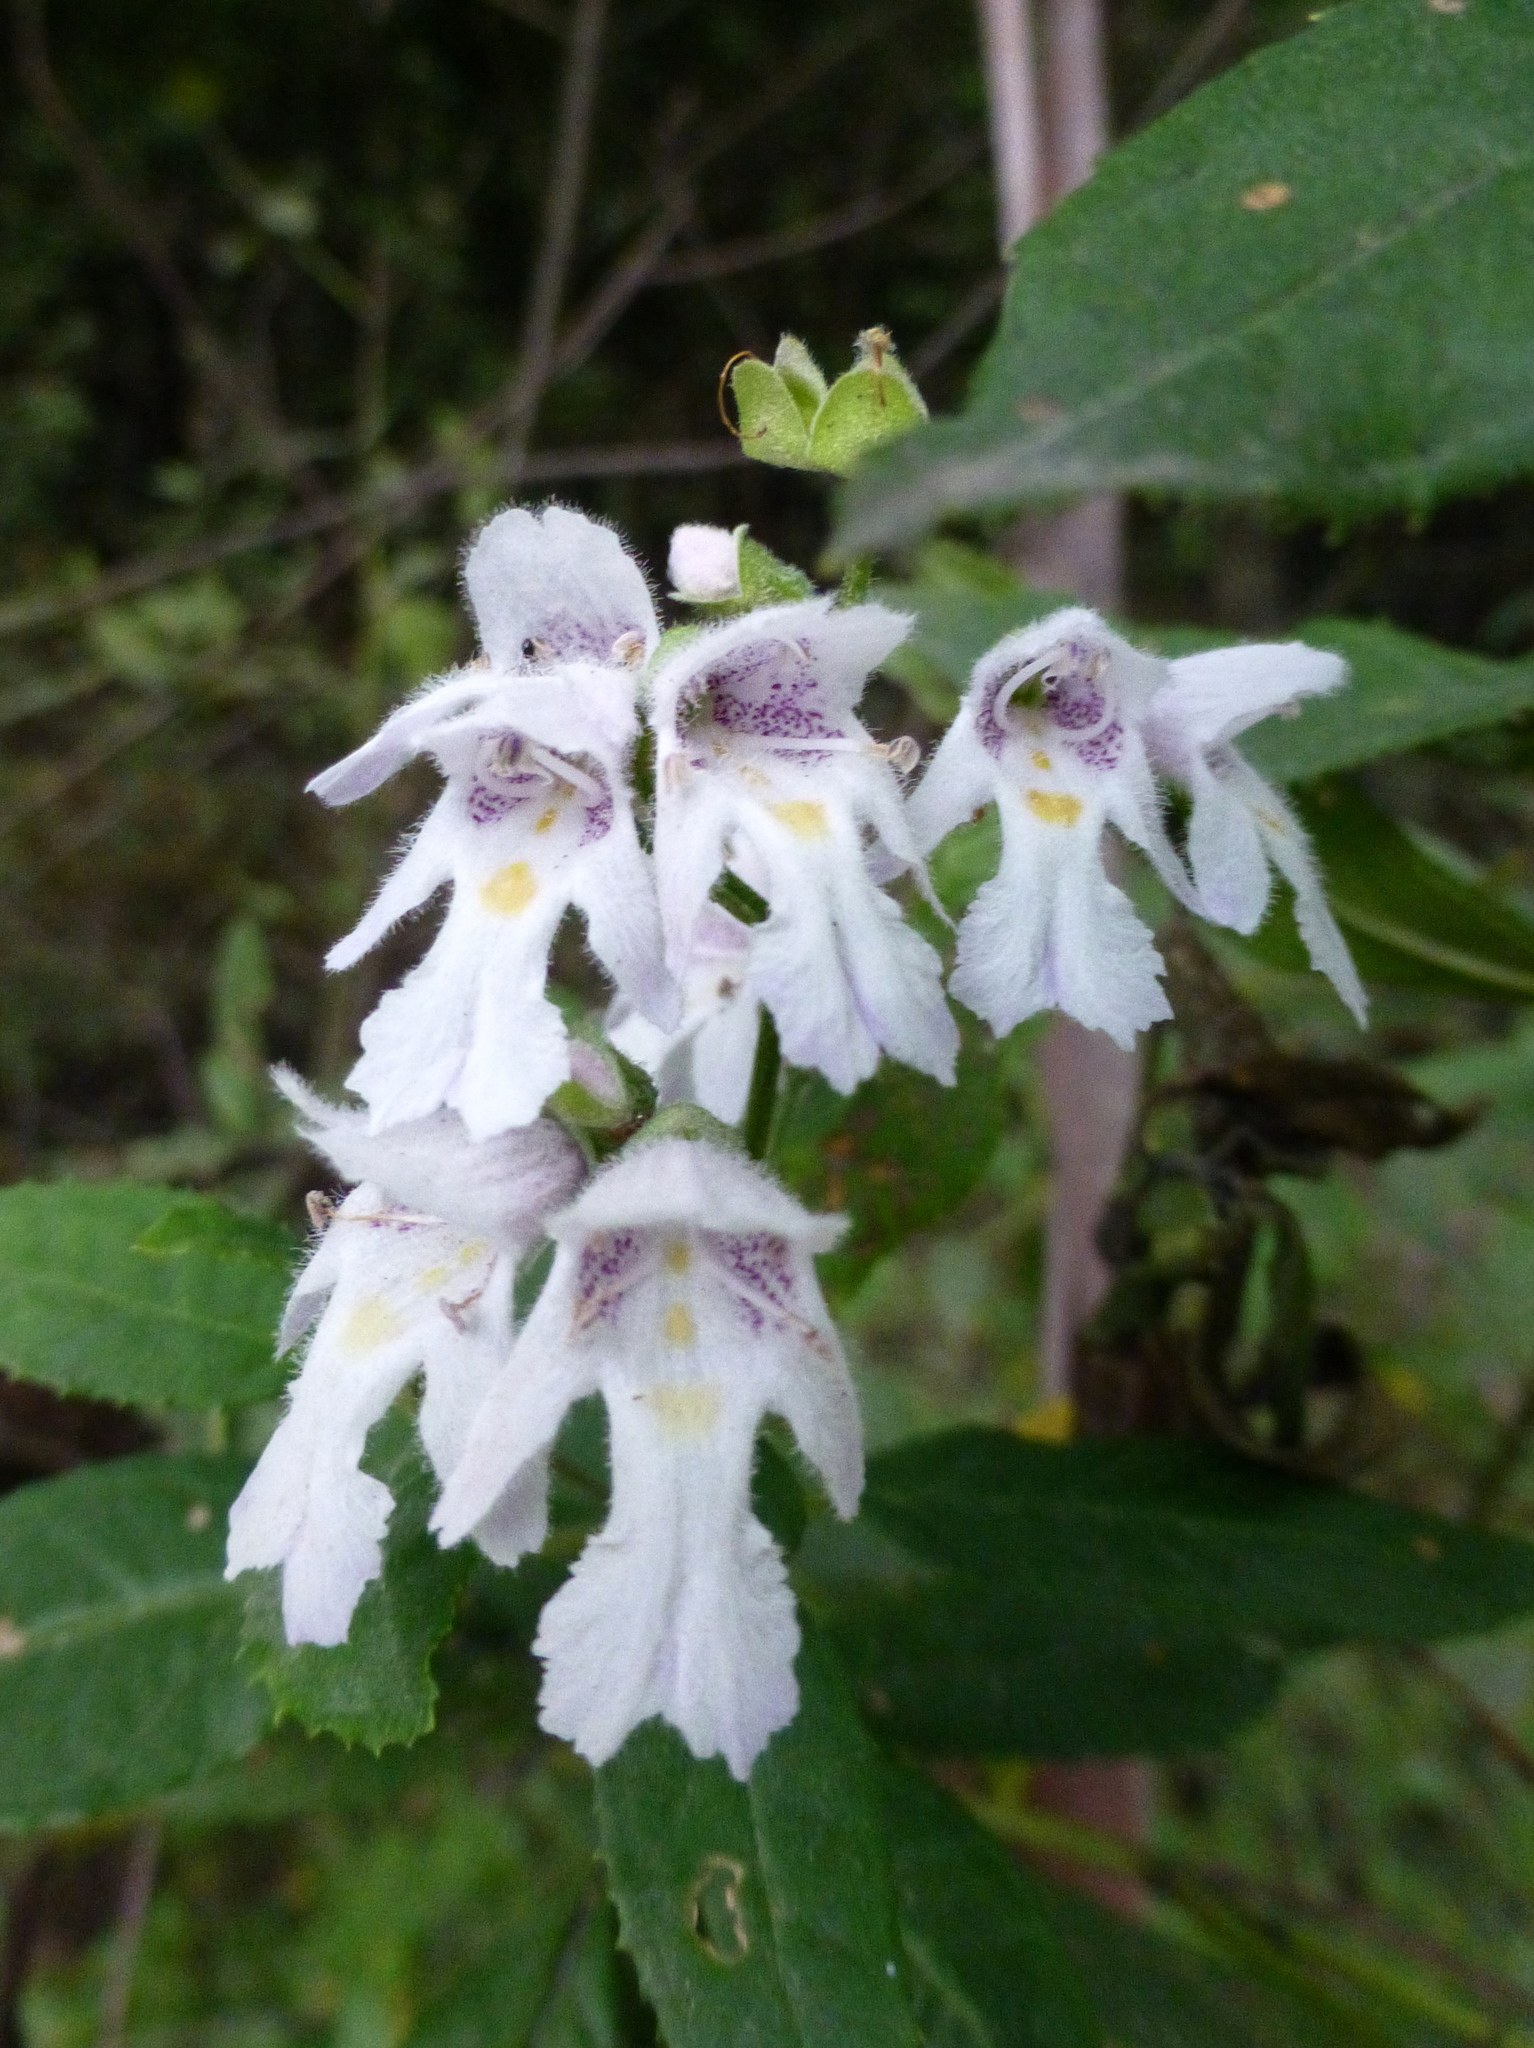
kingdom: Plantae
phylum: Tracheophyta
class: Magnoliopsida
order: Lamiales
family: Lamiaceae
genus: Prostanthera
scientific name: Prostanthera lasianthos
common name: Mountain-lilac
